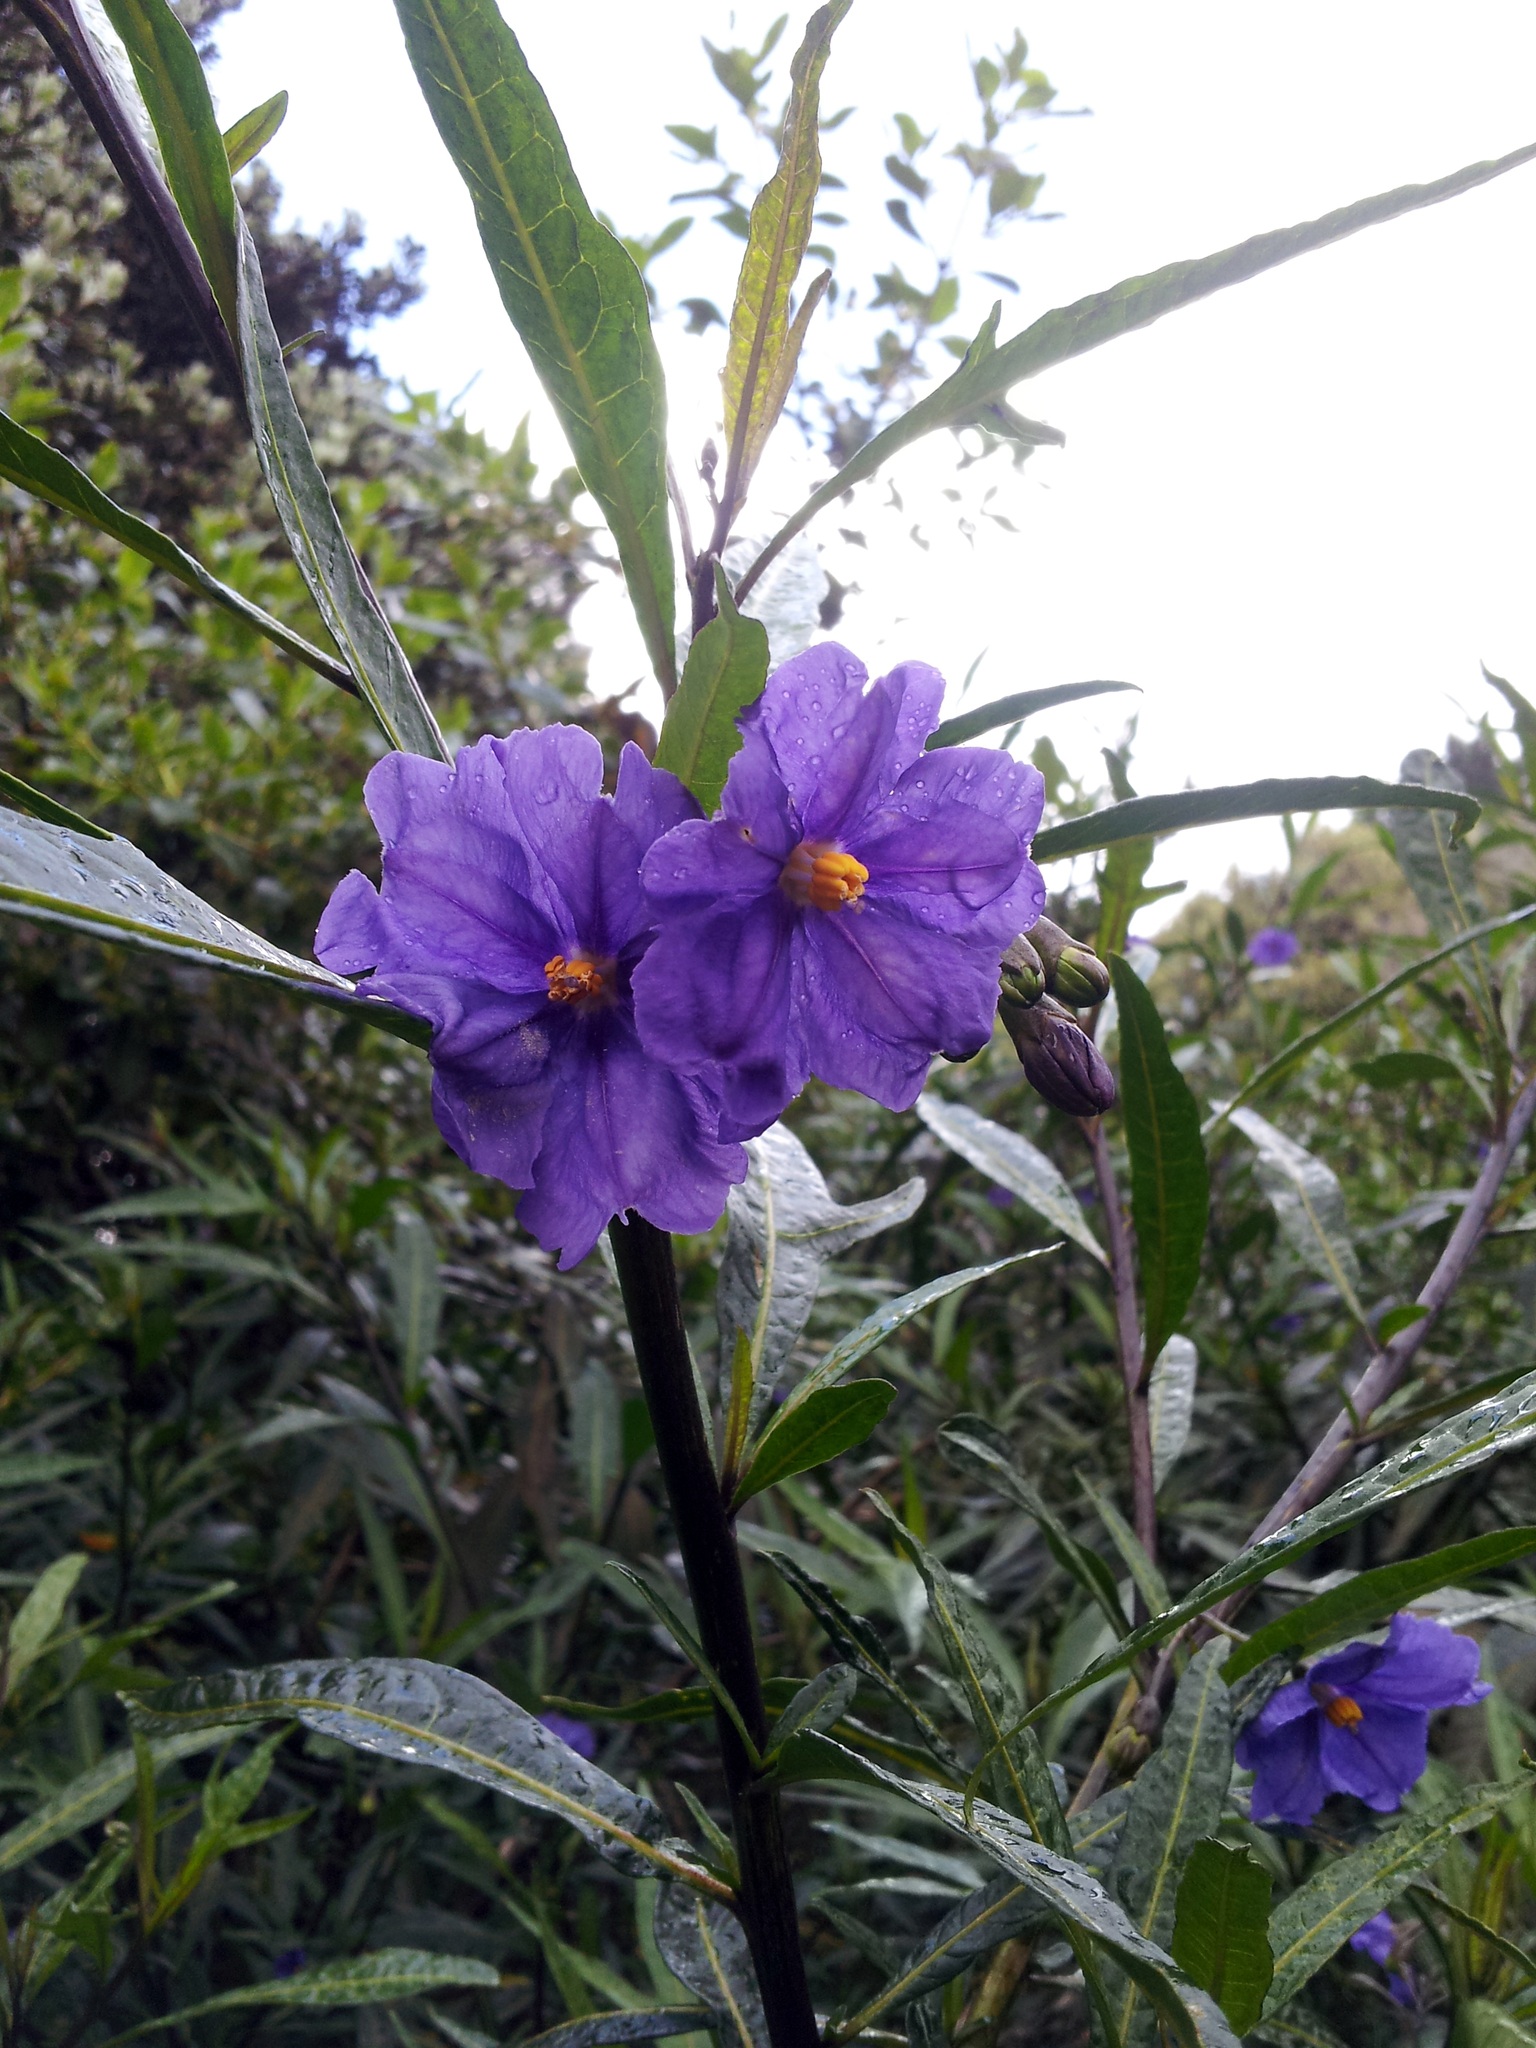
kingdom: Plantae
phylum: Tracheophyta
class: Magnoliopsida
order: Solanales
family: Solanaceae
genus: Solanum
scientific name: Solanum laciniatum
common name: Kangaroo-apple
